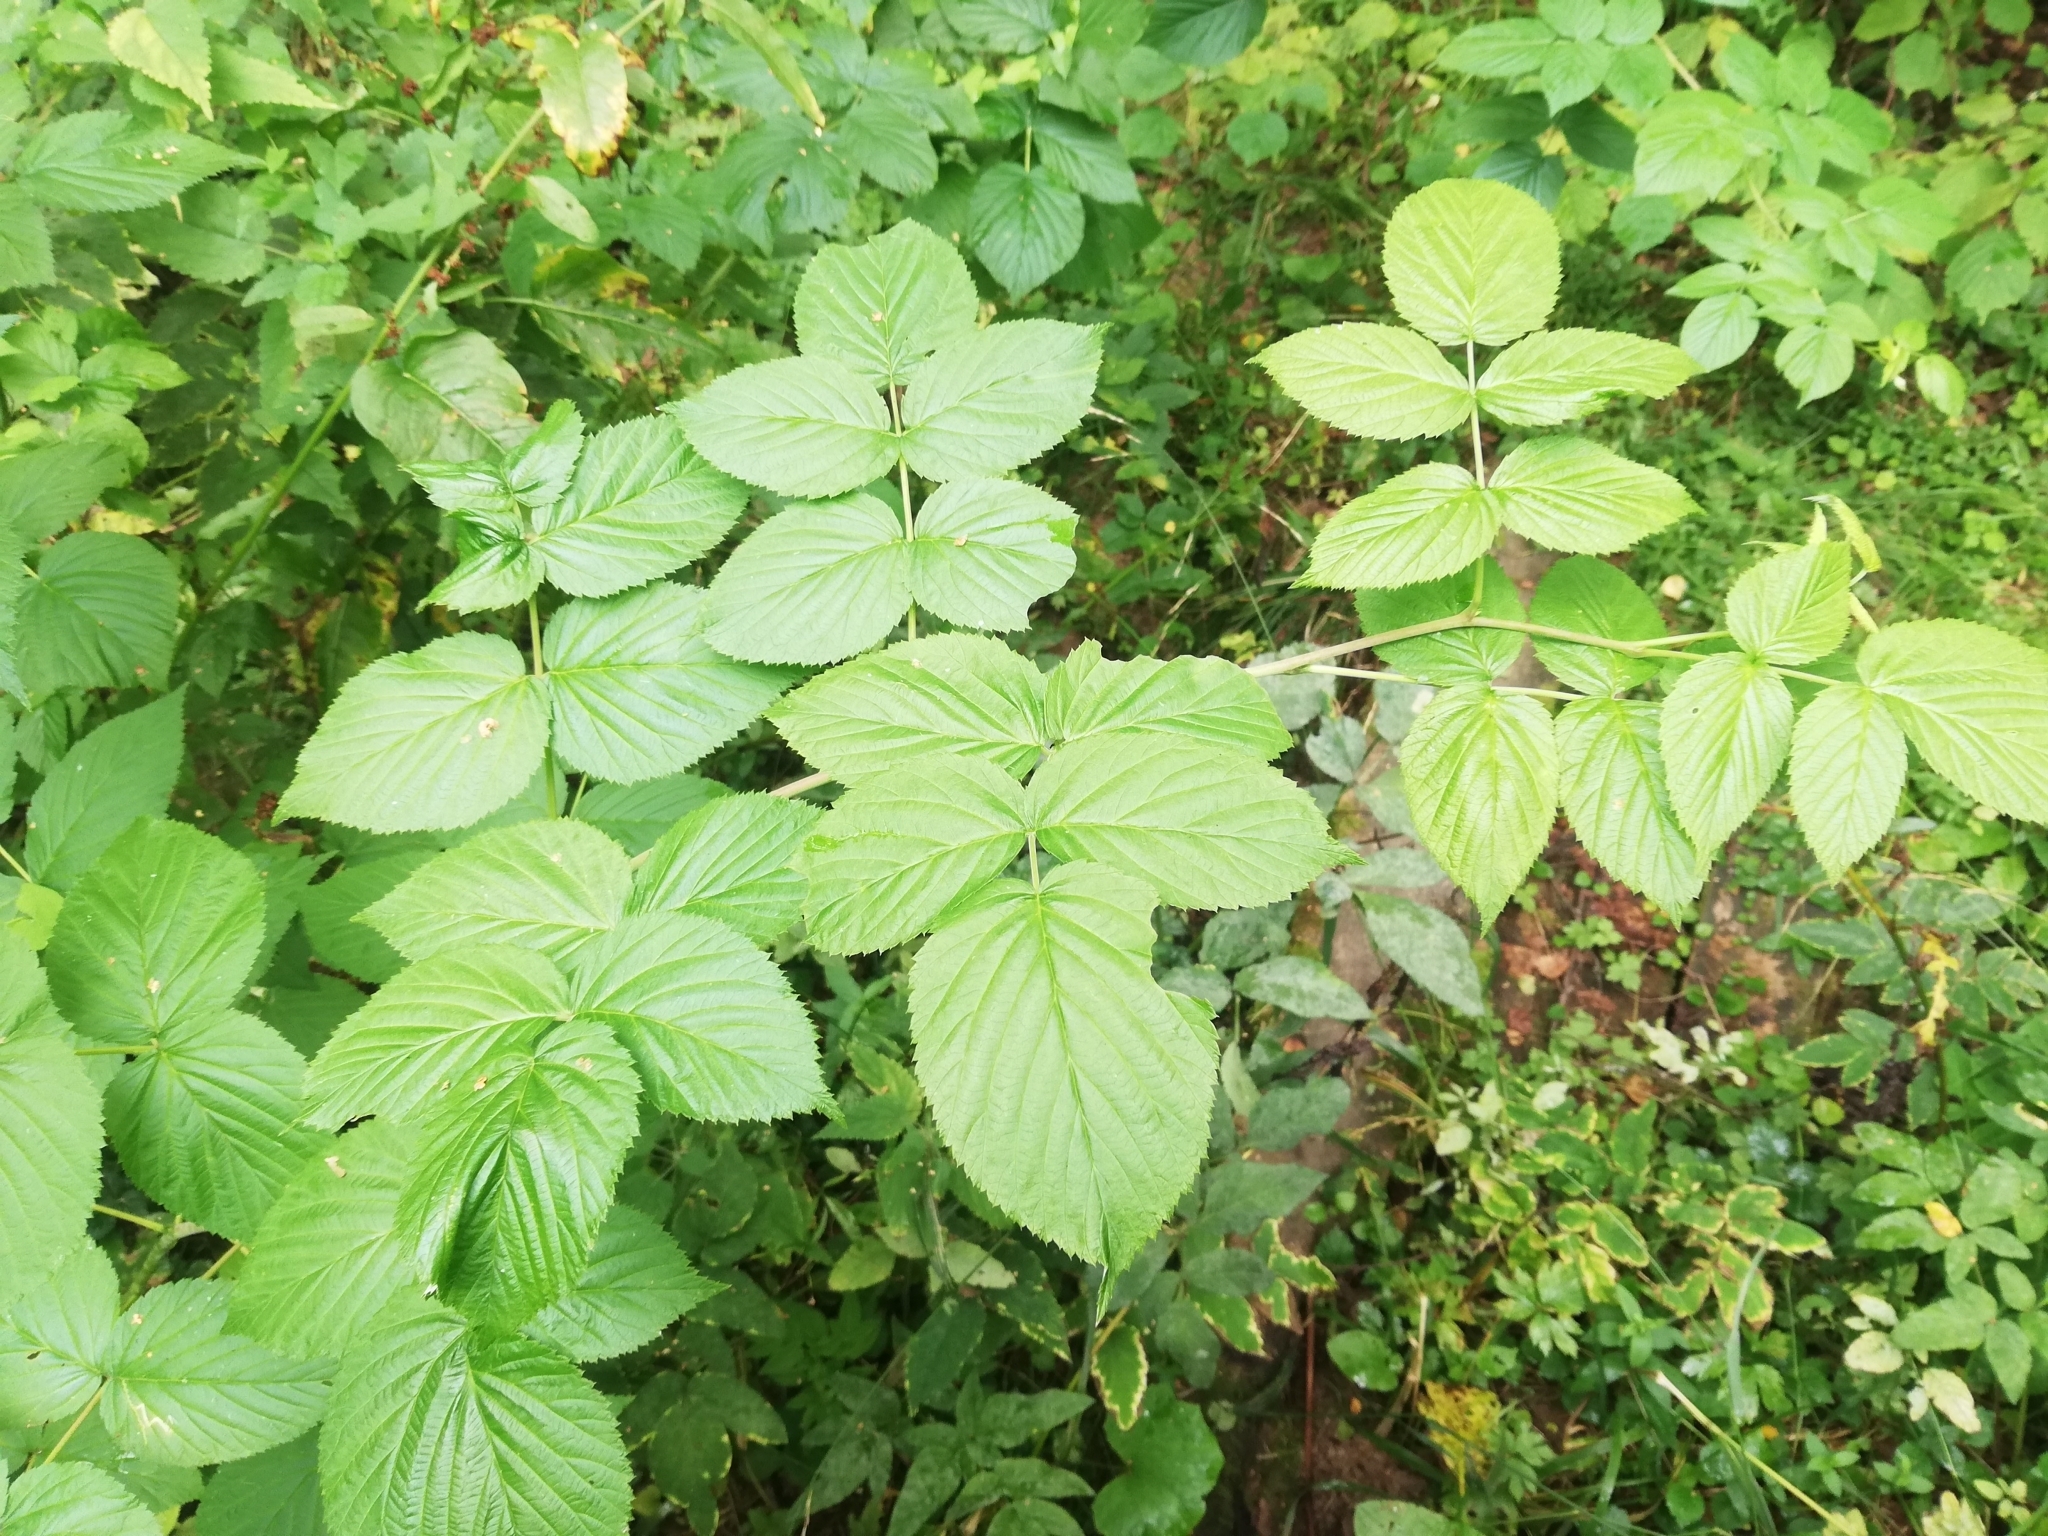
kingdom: Plantae
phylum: Tracheophyta
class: Magnoliopsida
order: Rosales
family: Rosaceae
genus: Rubus
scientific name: Rubus idaeus
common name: Raspberry
